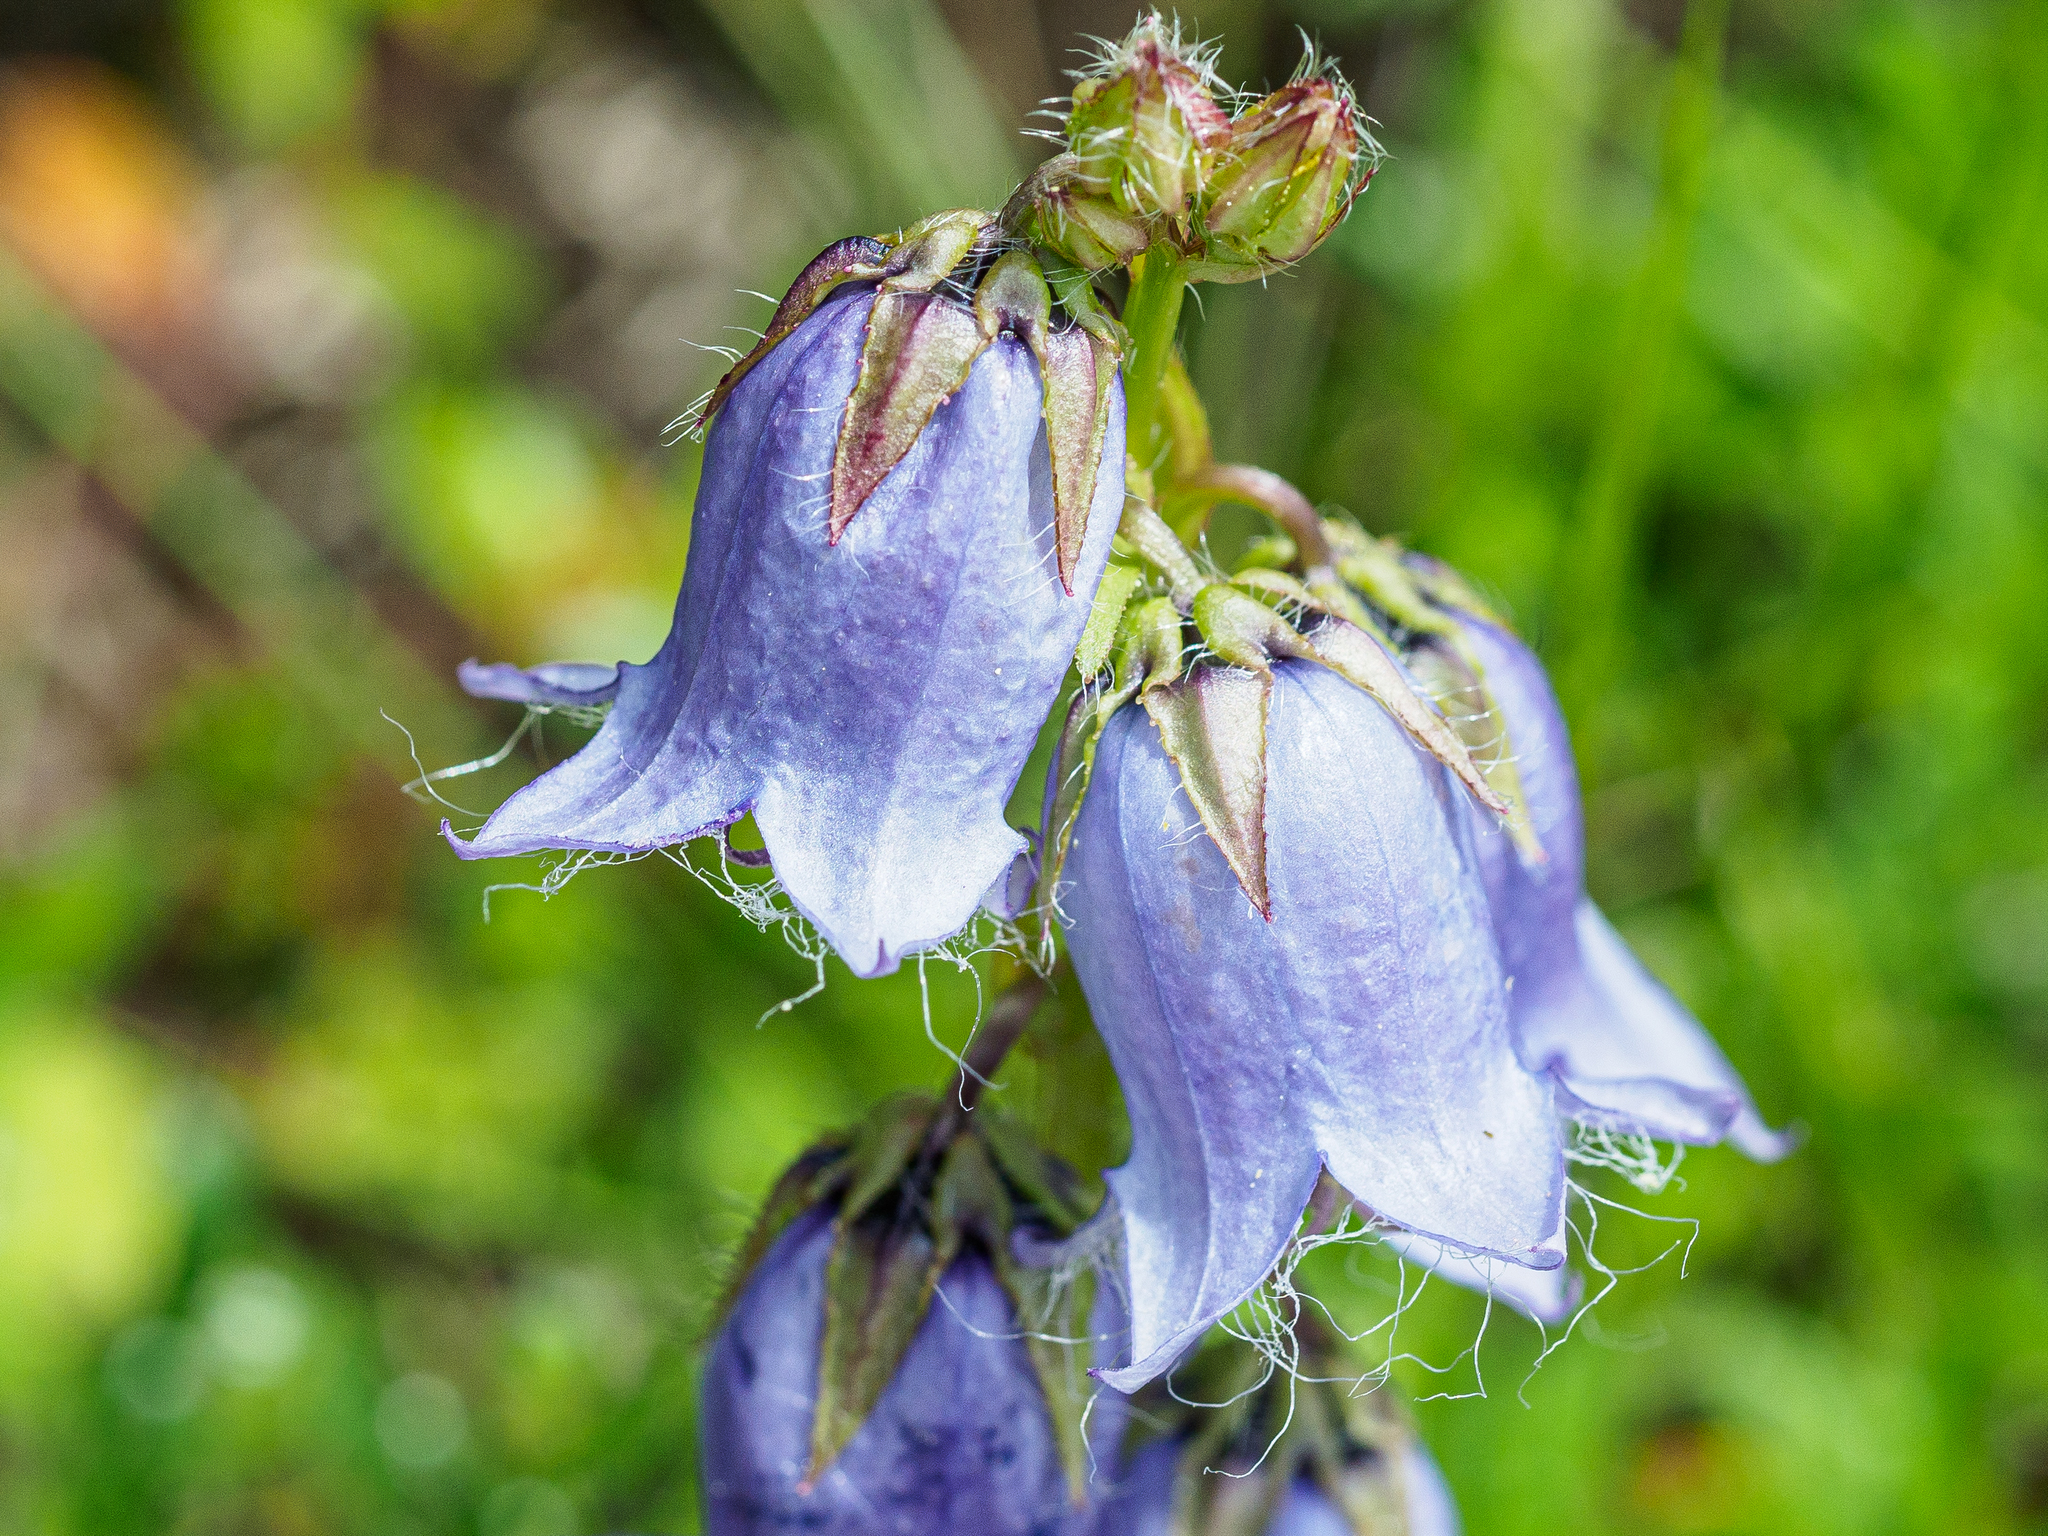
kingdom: Plantae
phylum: Tracheophyta
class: Magnoliopsida
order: Asterales
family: Campanulaceae
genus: Campanula
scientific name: Campanula barbata
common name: Bearded bellflower
